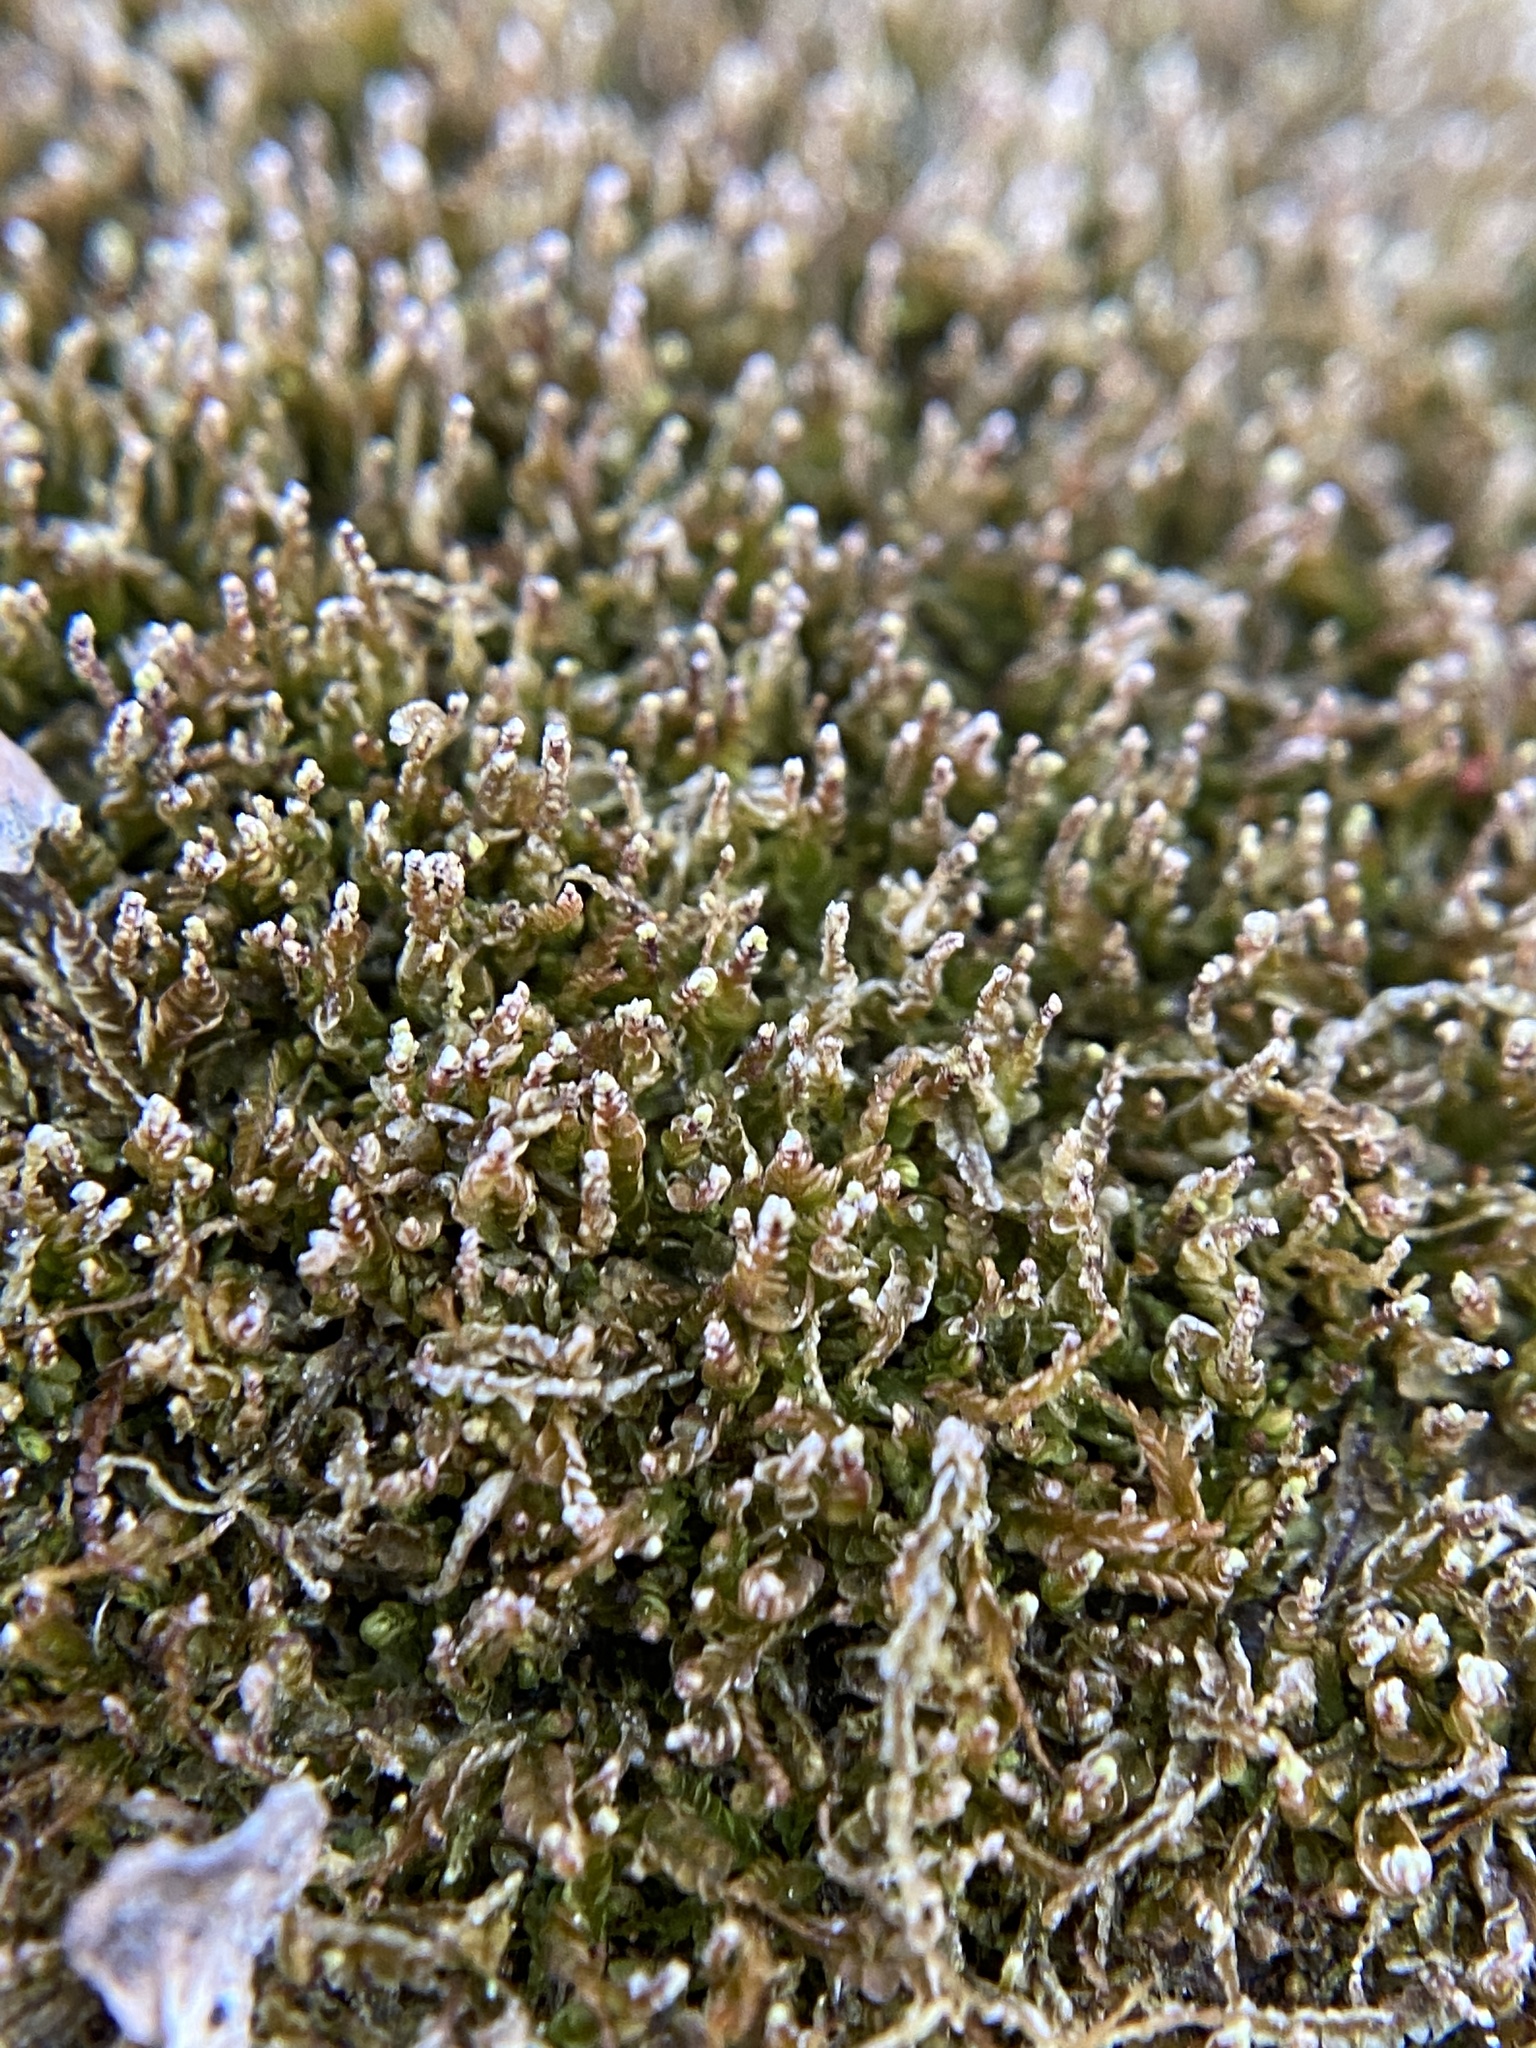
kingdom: Plantae
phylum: Marchantiophyta
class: Jungermanniopsida
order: Jungermanniales
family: Cephaloziaceae
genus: Odontoschisma
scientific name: Odontoschisma denudatum
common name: Matchstick flapwort
